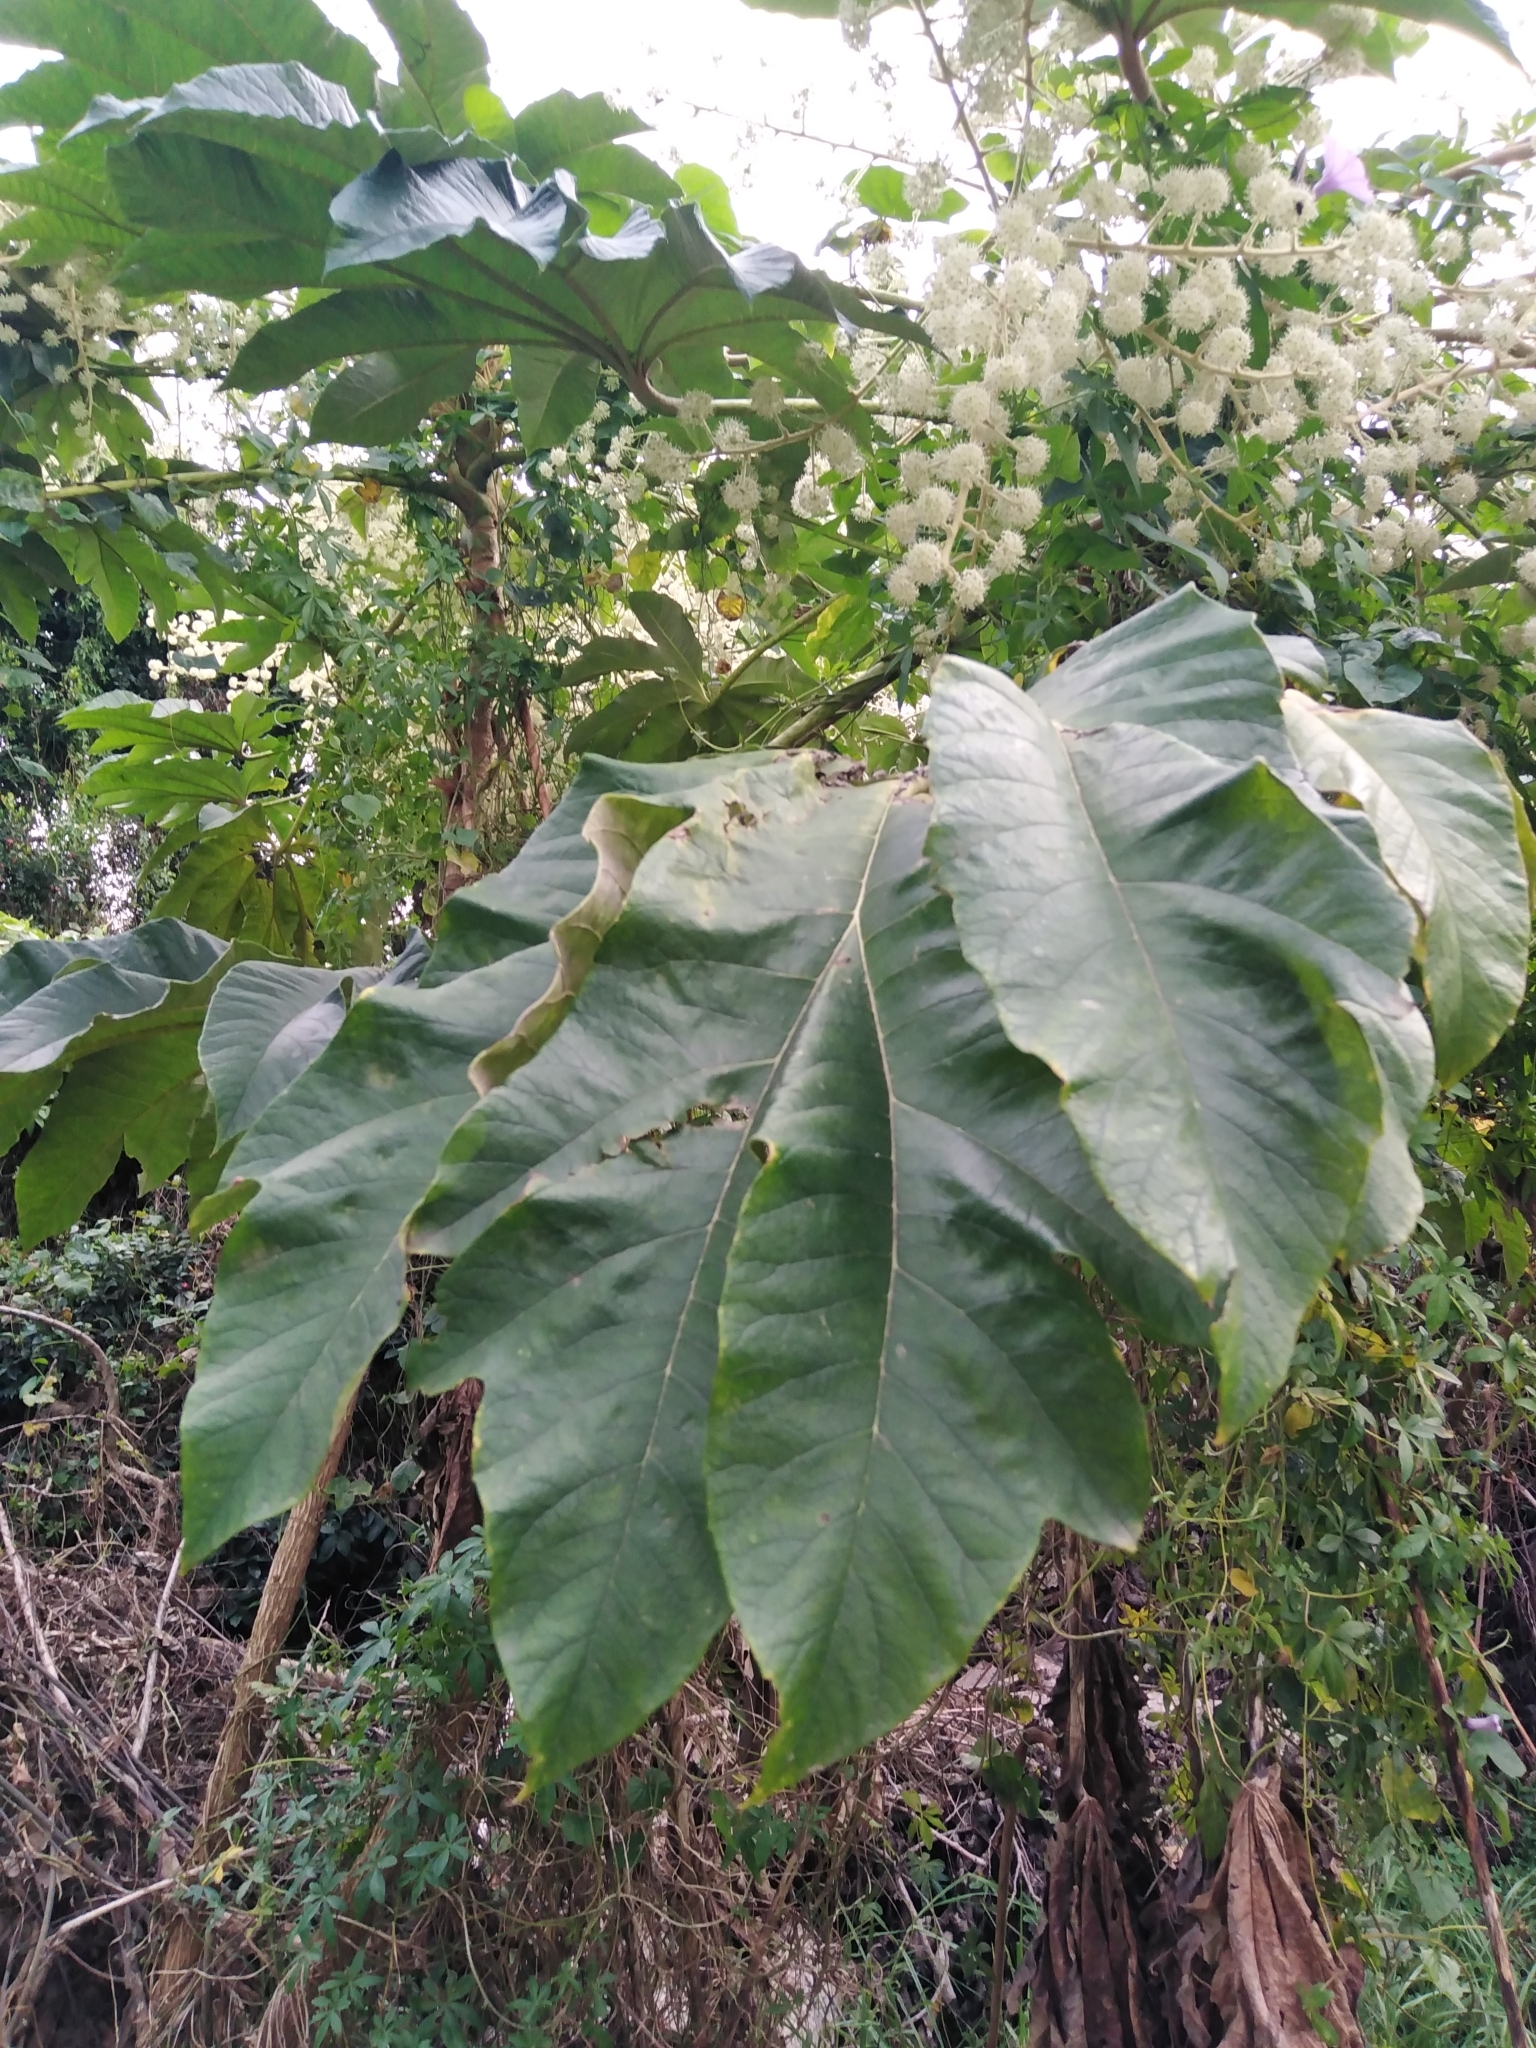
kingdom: Plantae
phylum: Tracheophyta
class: Magnoliopsida
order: Apiales
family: Araliaceae
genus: Tetrapanax
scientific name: Tetrapanax papyrifer
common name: Rice-paper plant
